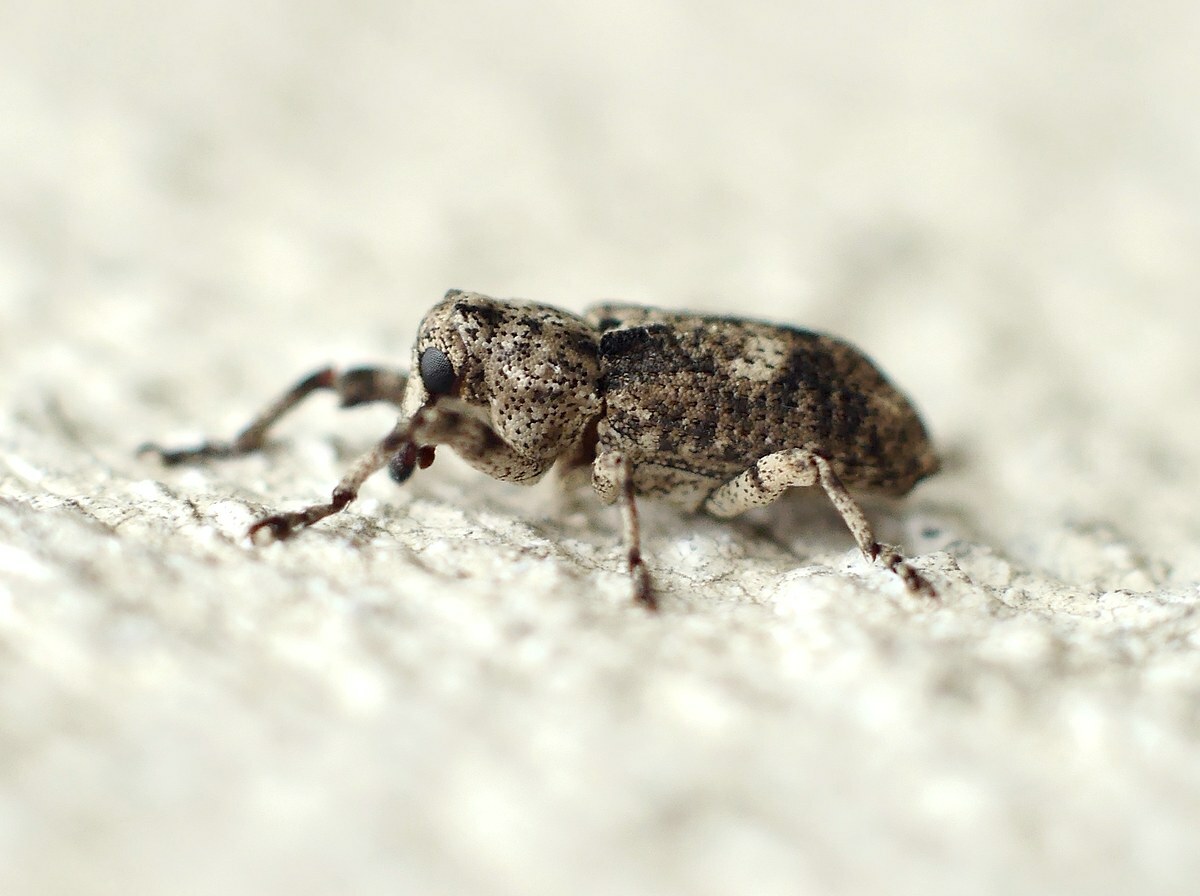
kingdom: Animalia
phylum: Arthropoda
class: Insecta
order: Coleoptera
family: Curculionidae
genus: Gasterocercus
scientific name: Gasterocercus depressirostris
